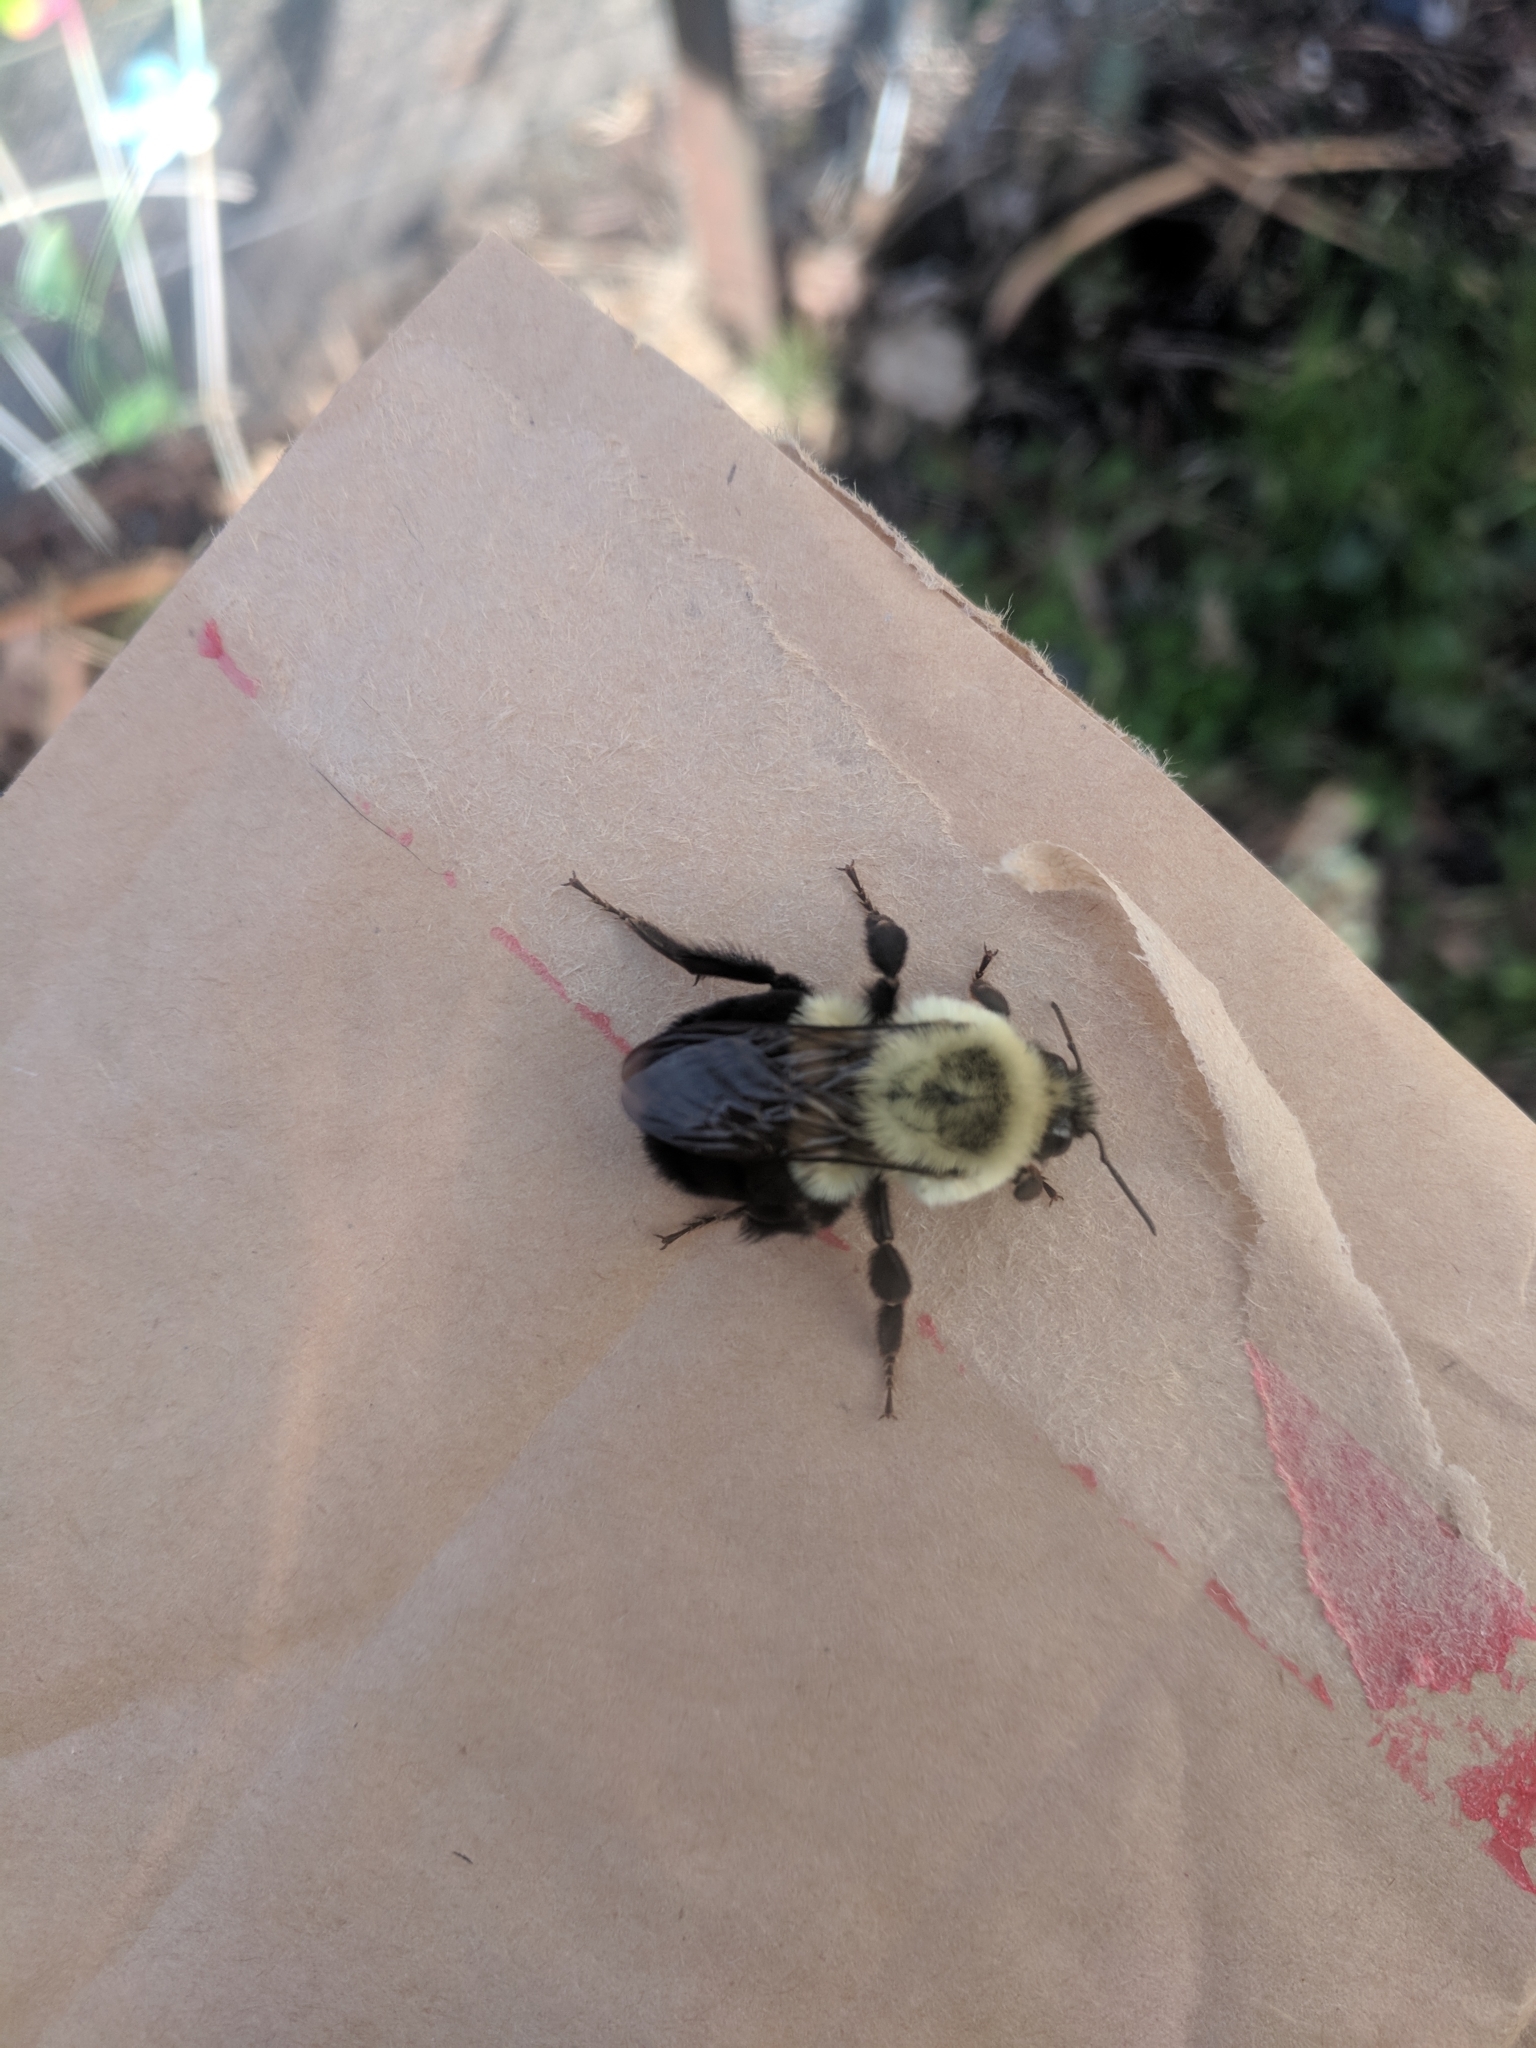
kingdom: Animalia
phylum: Arthropoda
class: Insecta
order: Hymenoptera
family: Apidae
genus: Bombus
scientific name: Bombus impatiens
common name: Common eastern bumble bee
